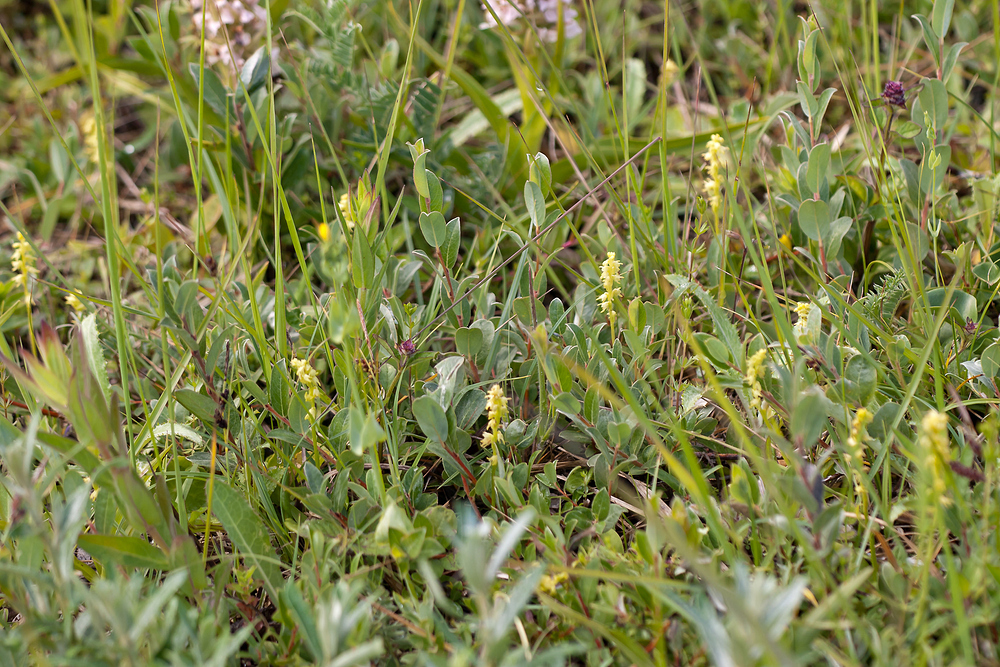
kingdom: Plantae
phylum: Tracheophyta
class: Liliopsida
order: Asparagales
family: Orchidaceae
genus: Herminium
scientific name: Herminium monorchis
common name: Musk orchid
